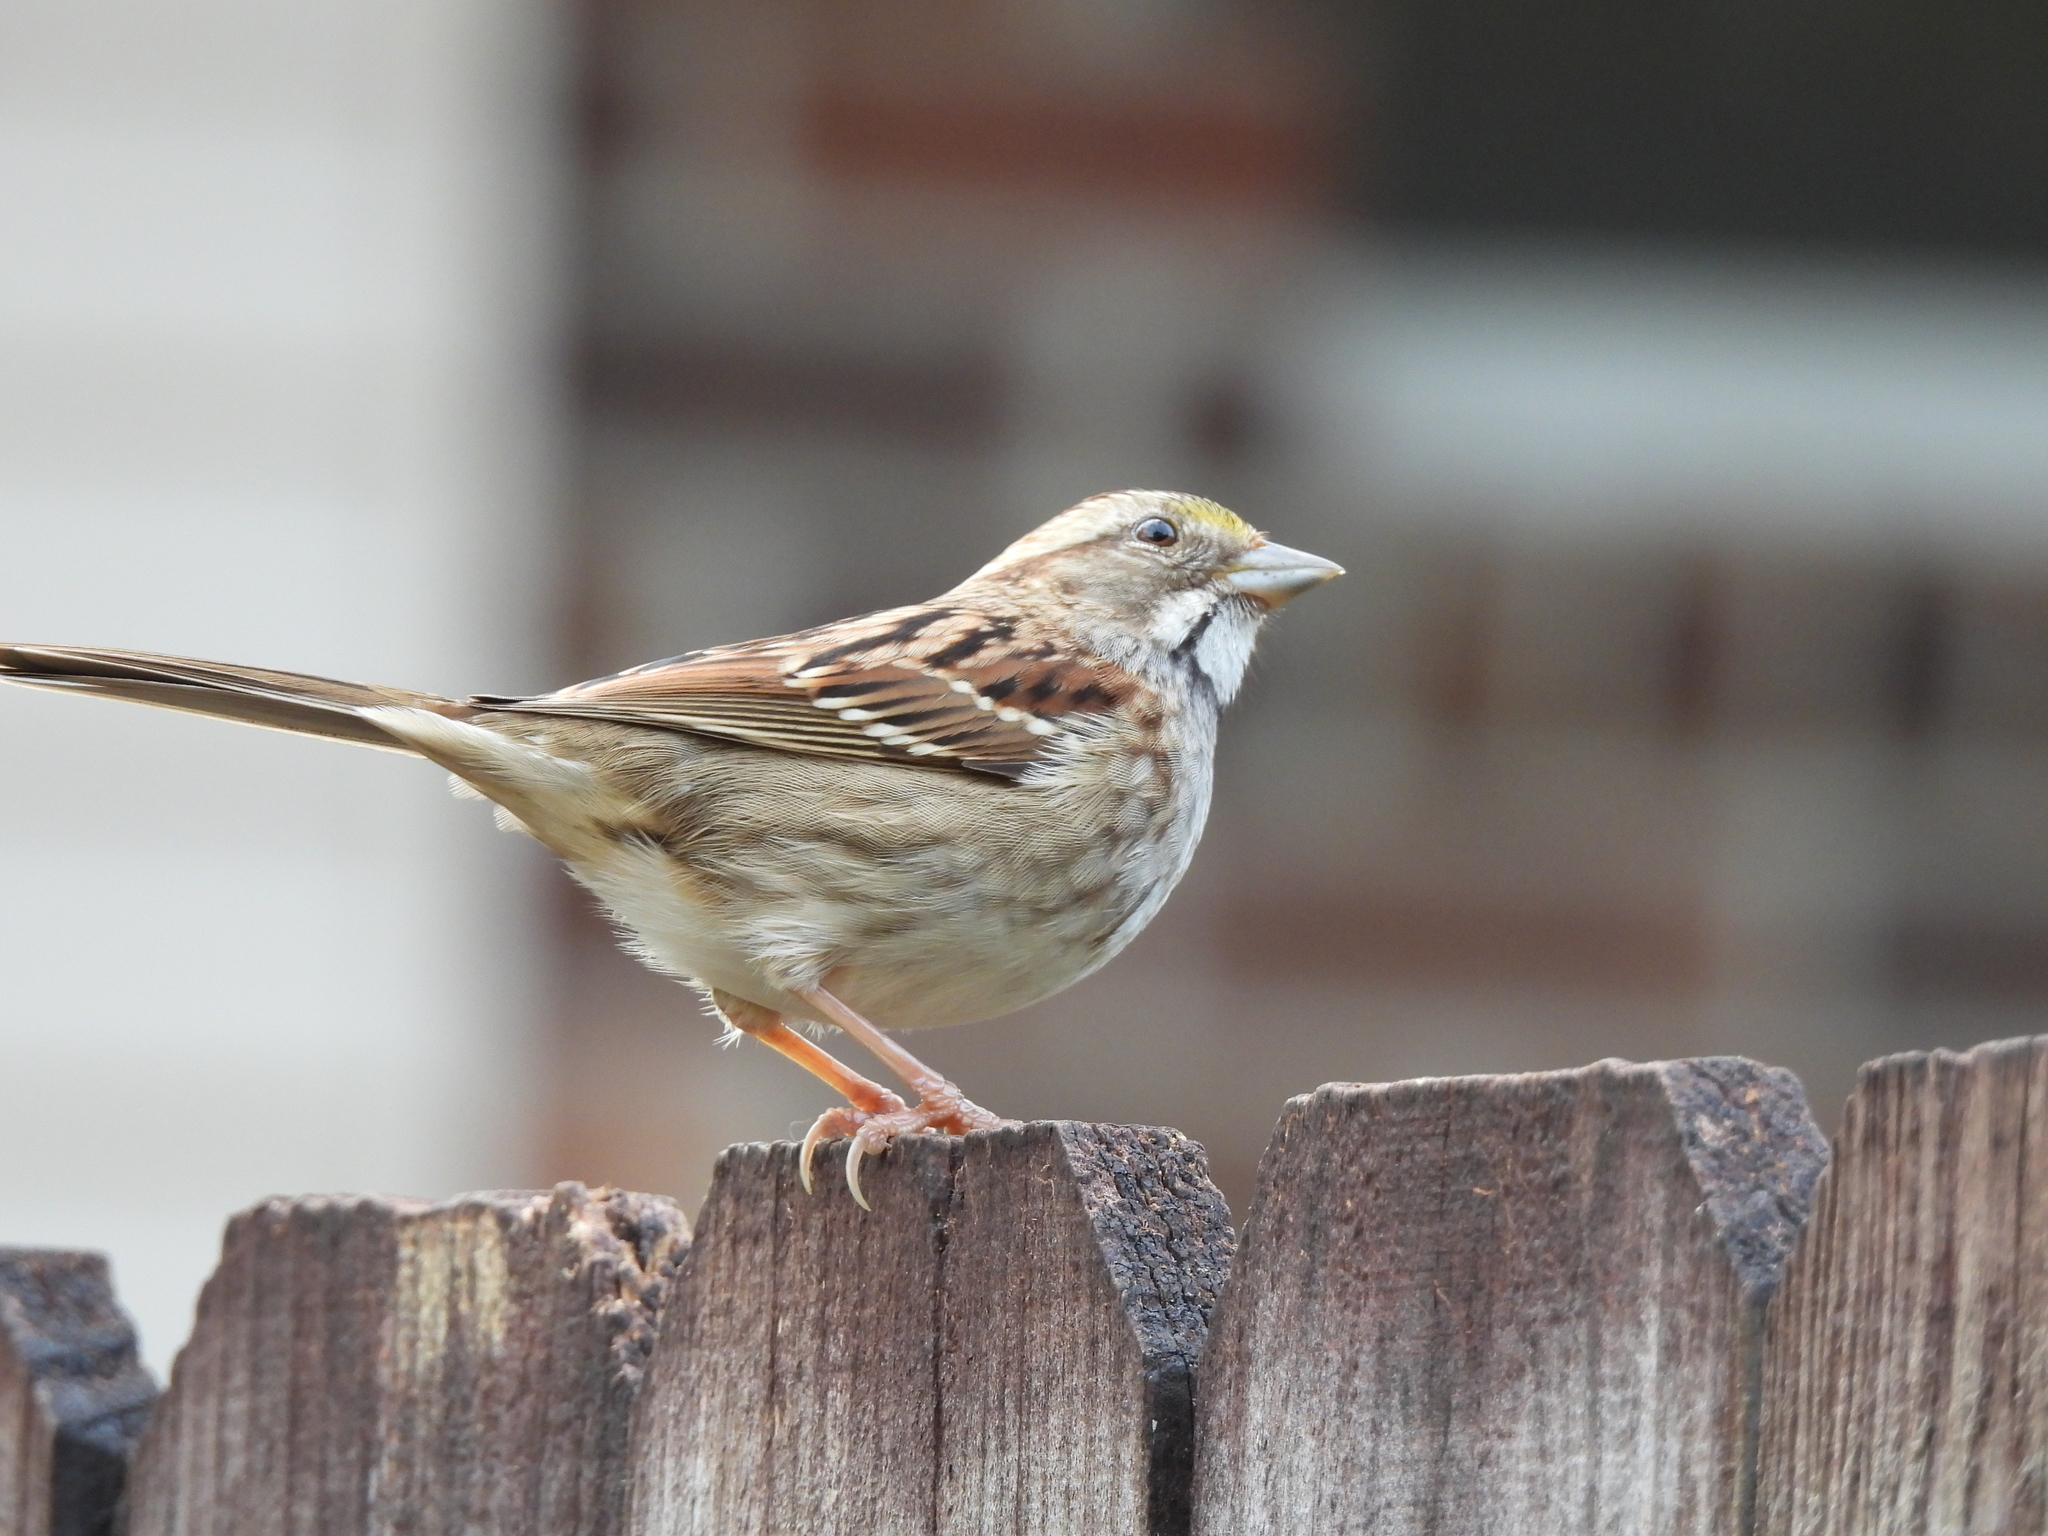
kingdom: Animalia
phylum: Chordata
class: Aves
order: Passeriformes
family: Passerellidae
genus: Zonotrichia
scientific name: Zonotrichia albicollis
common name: White-throated sparrow
